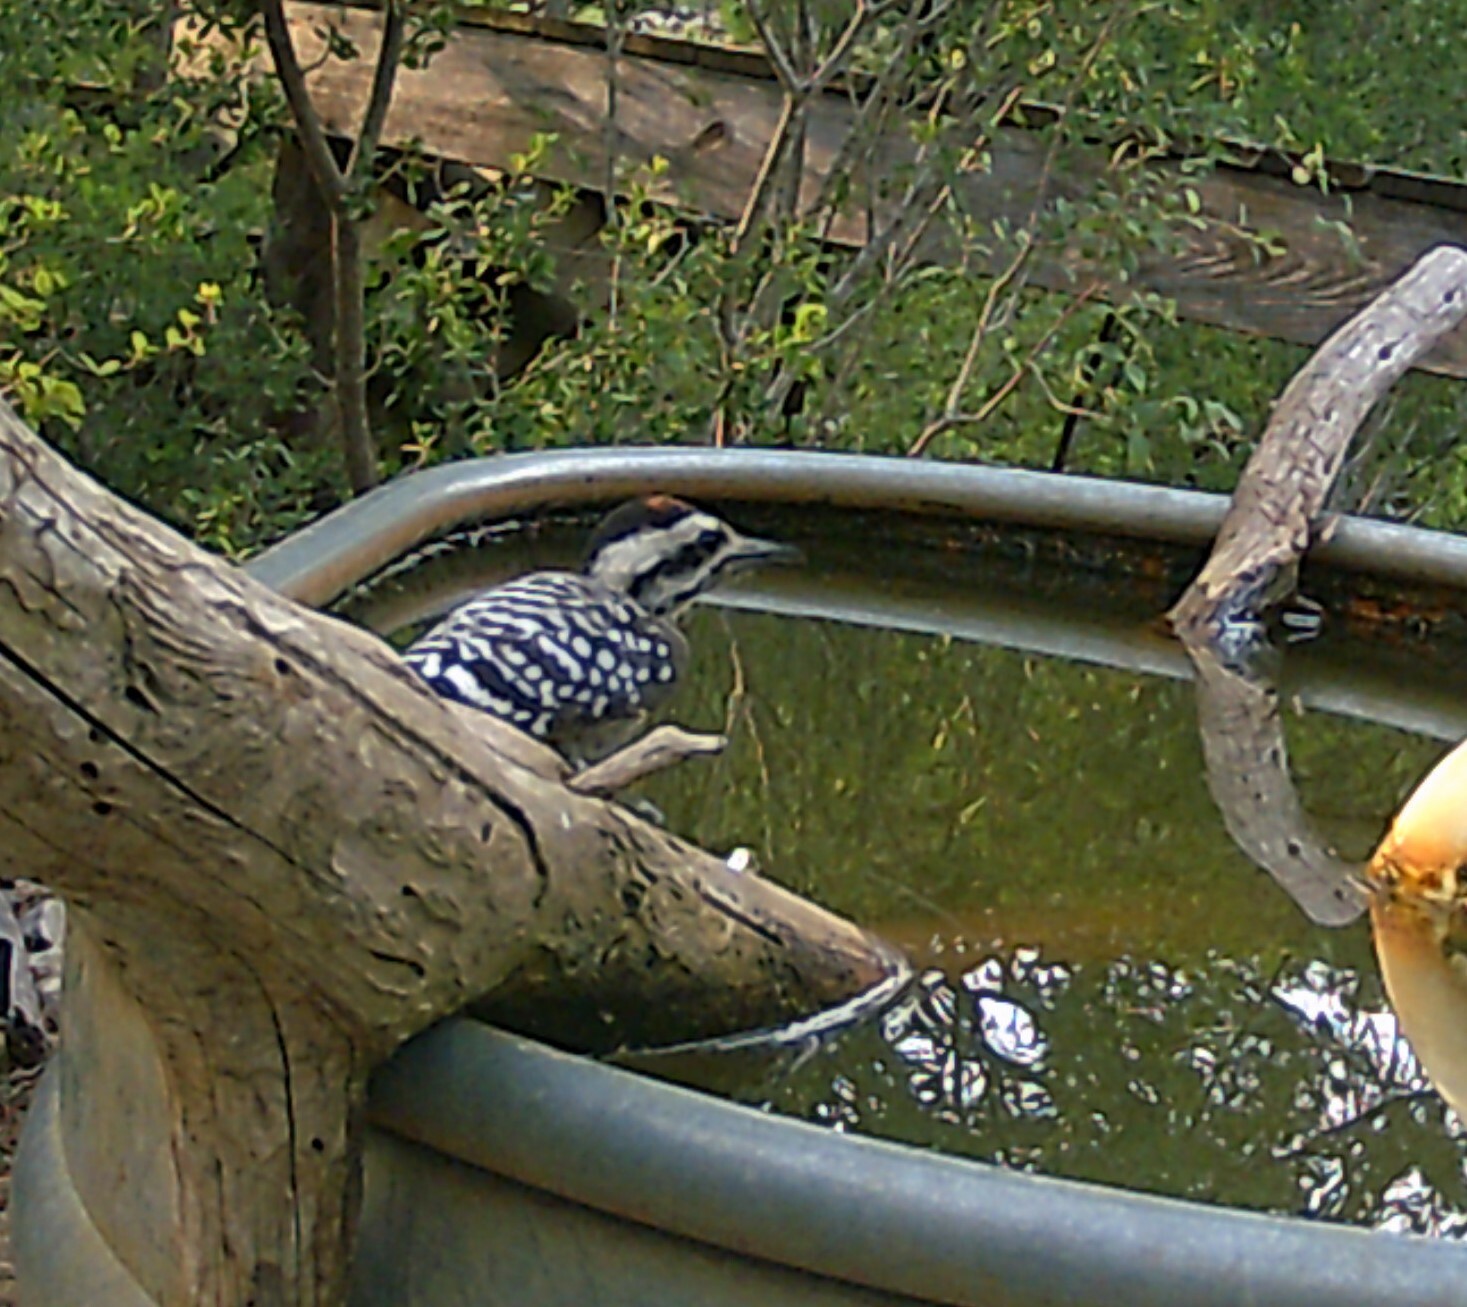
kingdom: Animalia
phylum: Chordata
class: Aves
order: Piciformes
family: Picidae
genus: Dryobates
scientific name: Dryobates scalaris
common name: Ladder-backed woodpecker
